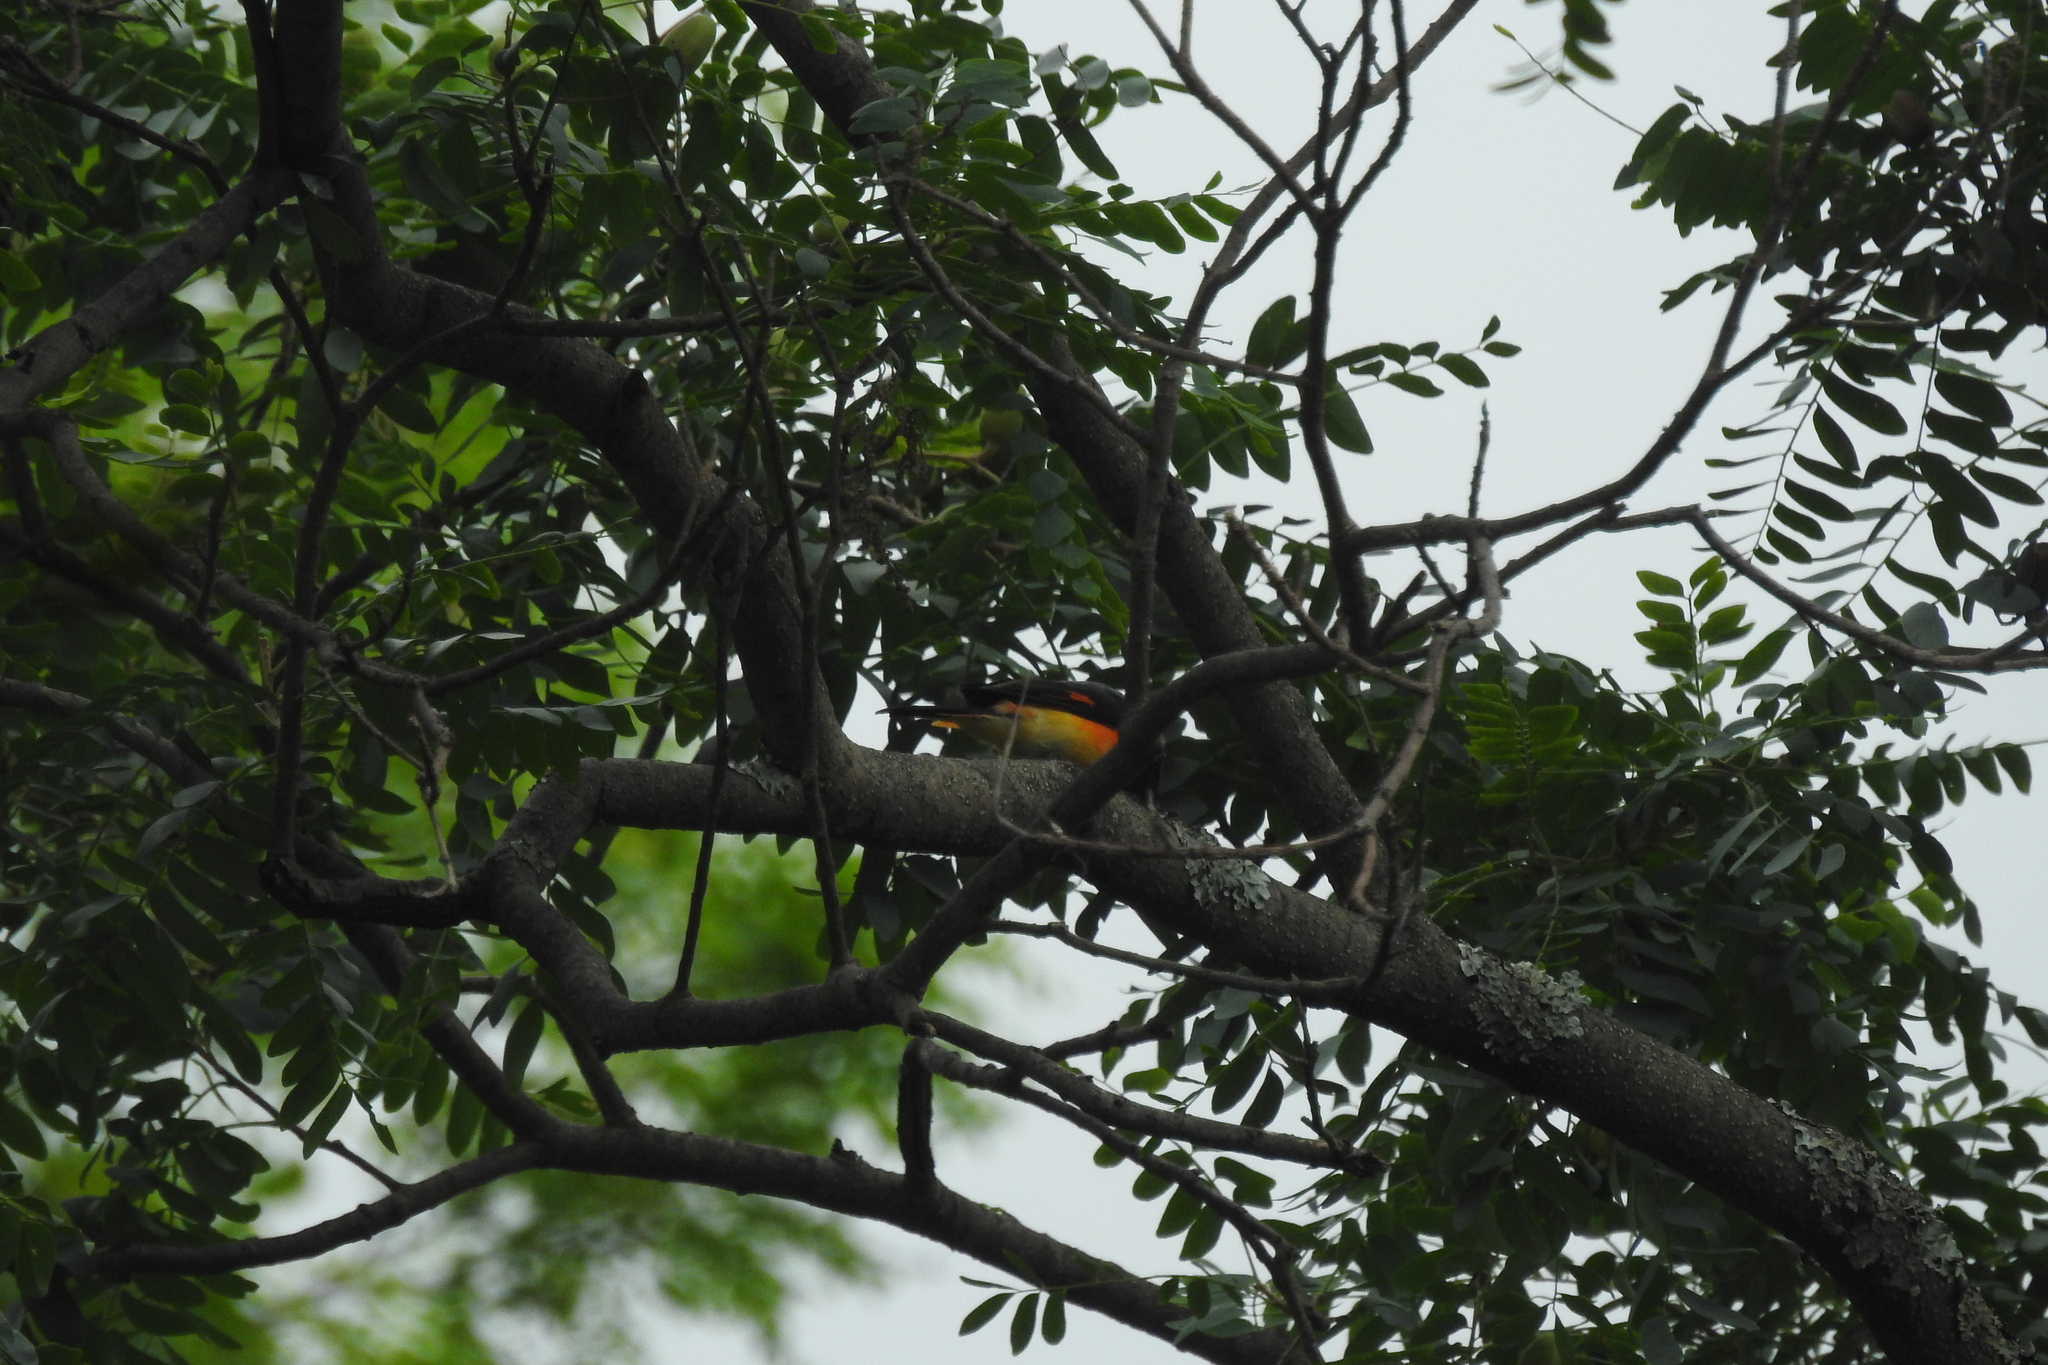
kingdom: Animalia
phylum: Chordata
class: Aves
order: Passeriformes
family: Campephagidae
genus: Pericrocotus
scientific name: Pericrocotus cinnamomeus
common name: Small minivet
